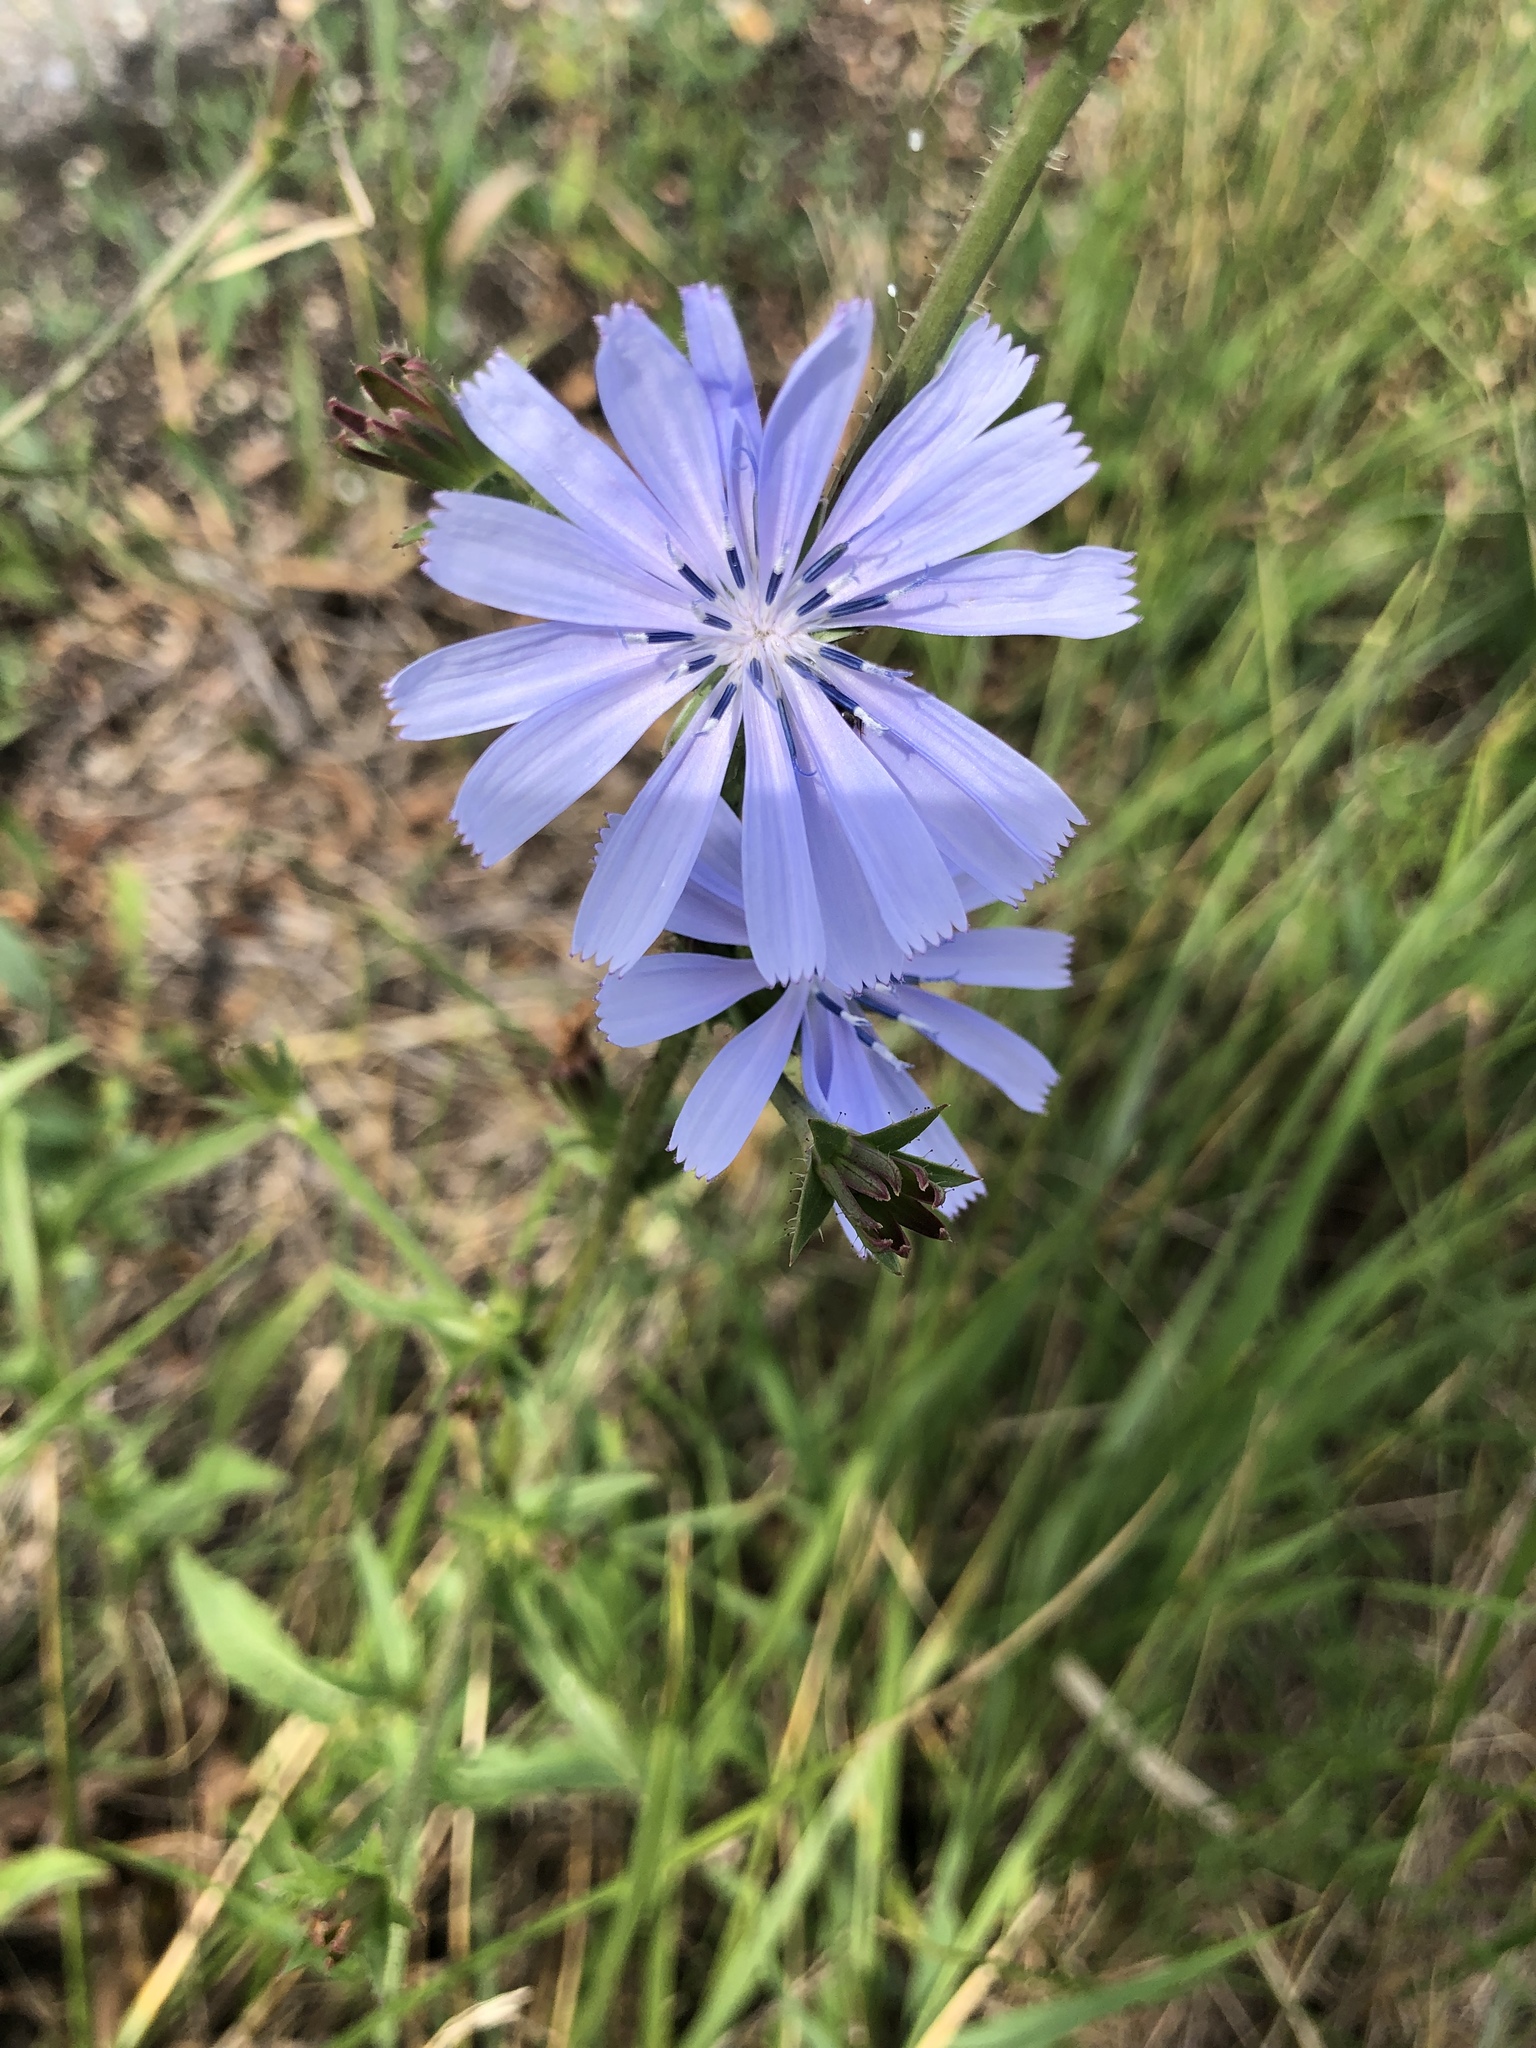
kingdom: Plantae
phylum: Tracheophyta
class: Magnoliopsida
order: Asterales
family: Asteraceae
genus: Cichorium
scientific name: Cichorium intybus
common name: Chicory
